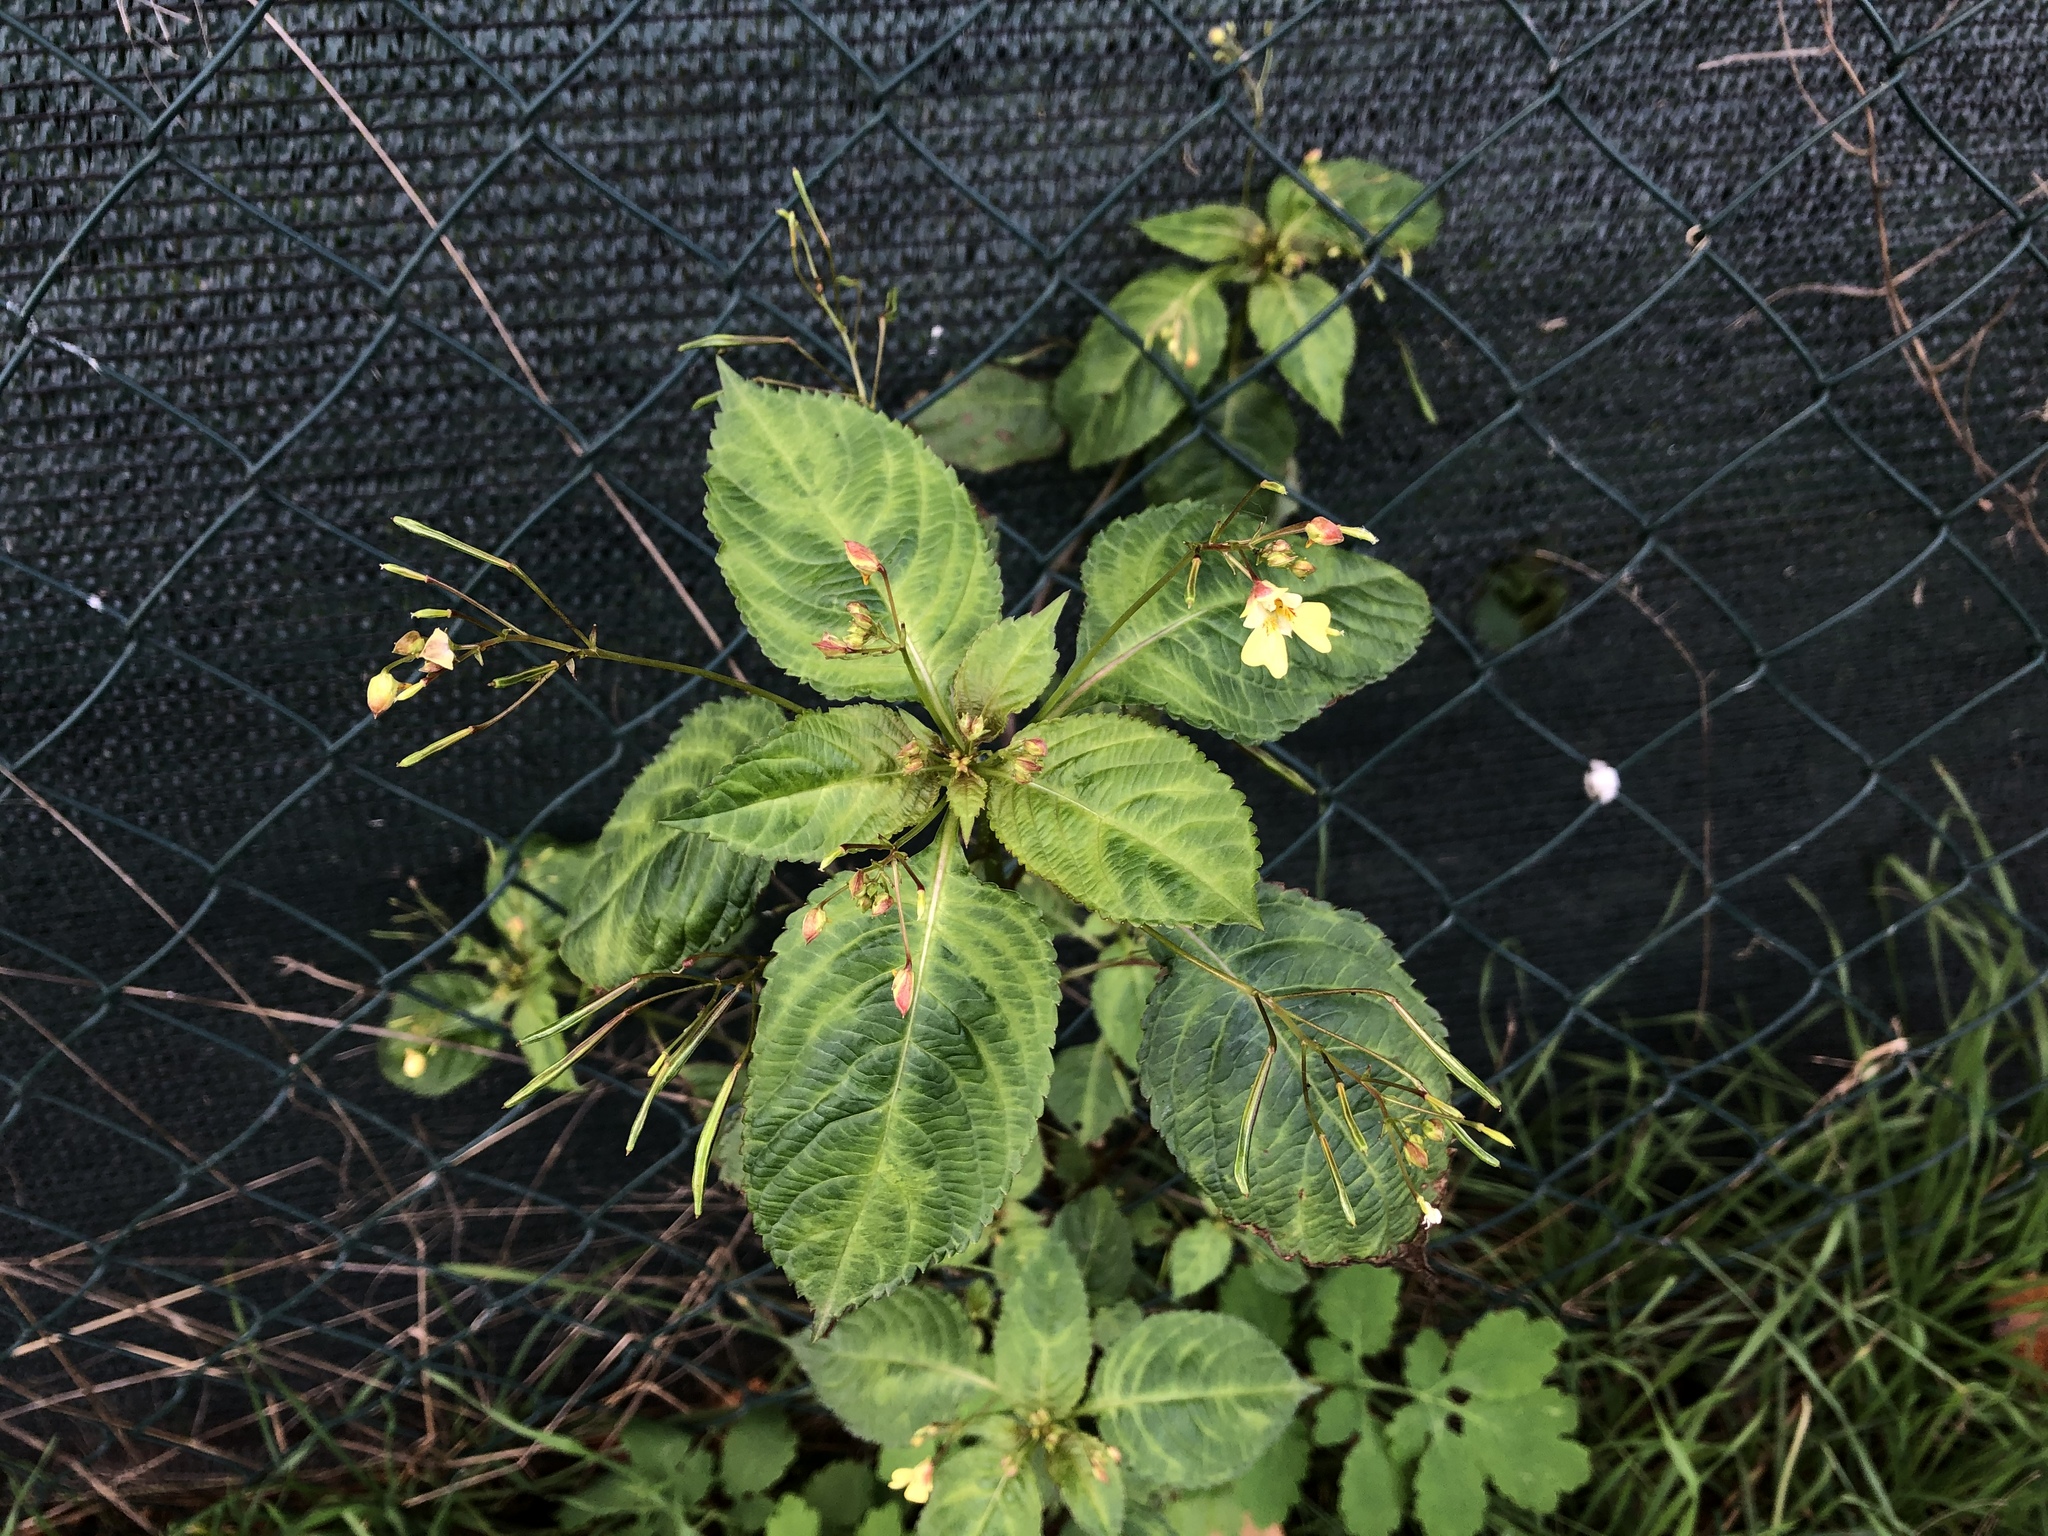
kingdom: Plantae
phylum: Tracheophyta
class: Magnoliopsida
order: Ericales
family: Balsaminaceae
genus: Impatiens
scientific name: Impatiens parviflora
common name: Small balsam
